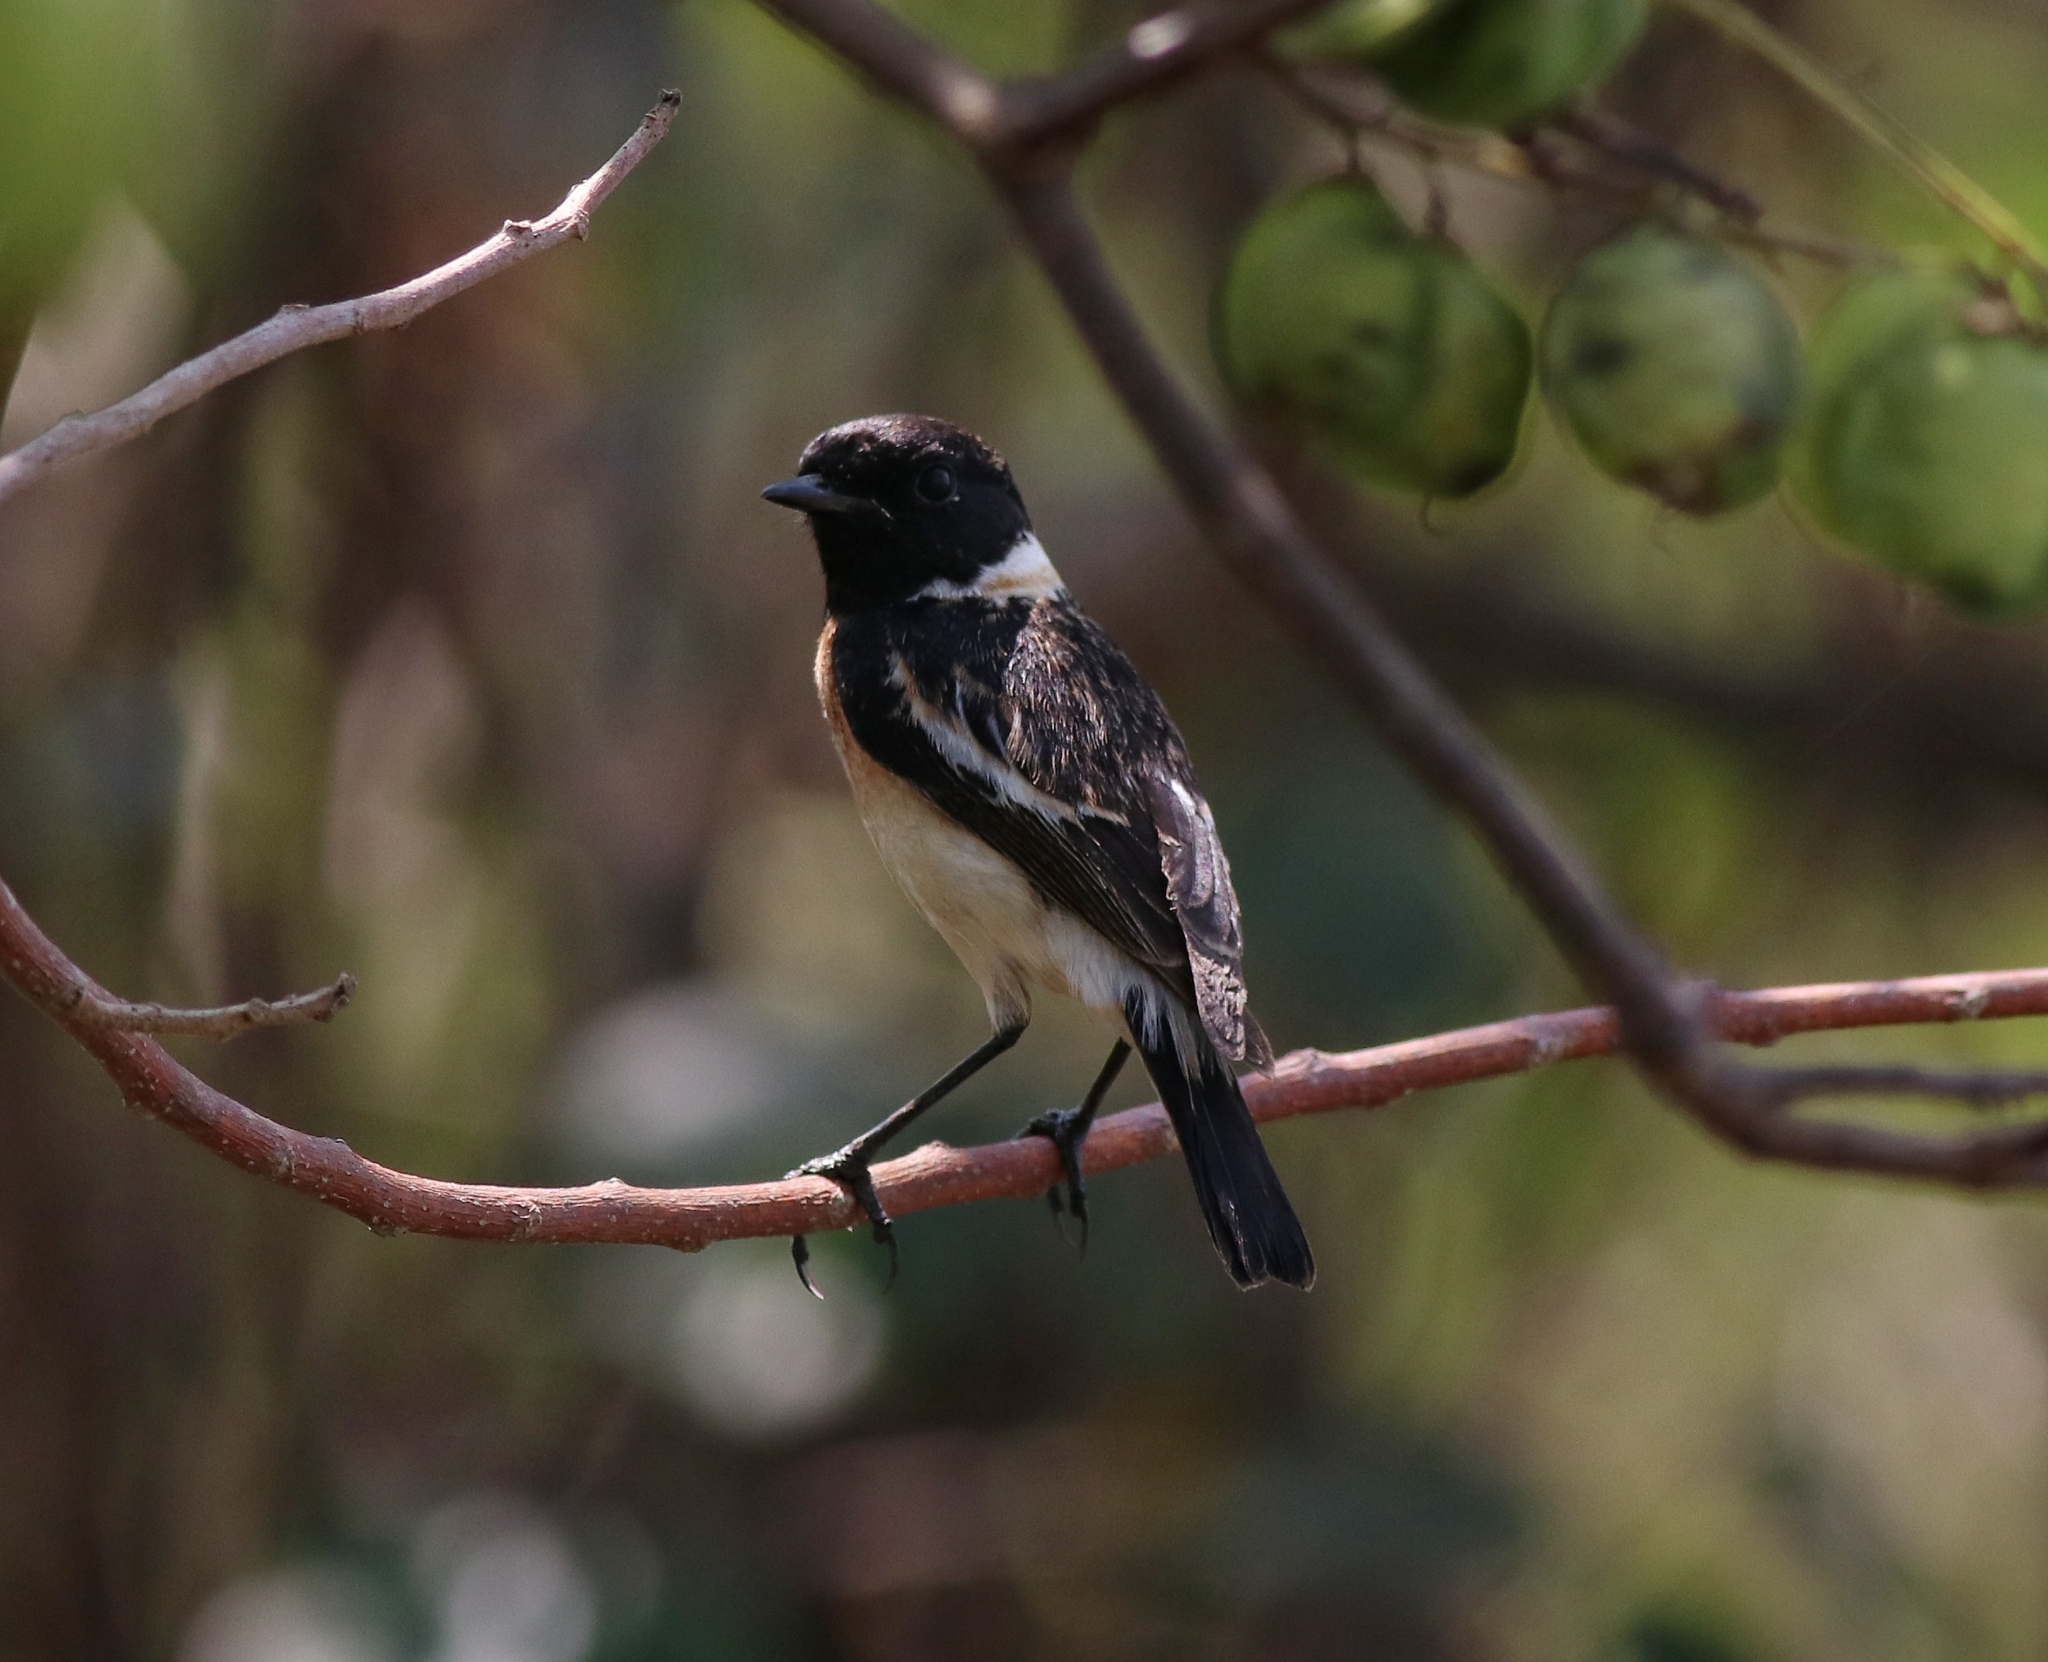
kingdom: Animalia
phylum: Chordata
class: Aves
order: Passeriformes
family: Muscicapidae
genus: Saxicola
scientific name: Saxicola maurus
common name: Siberian stonechat
